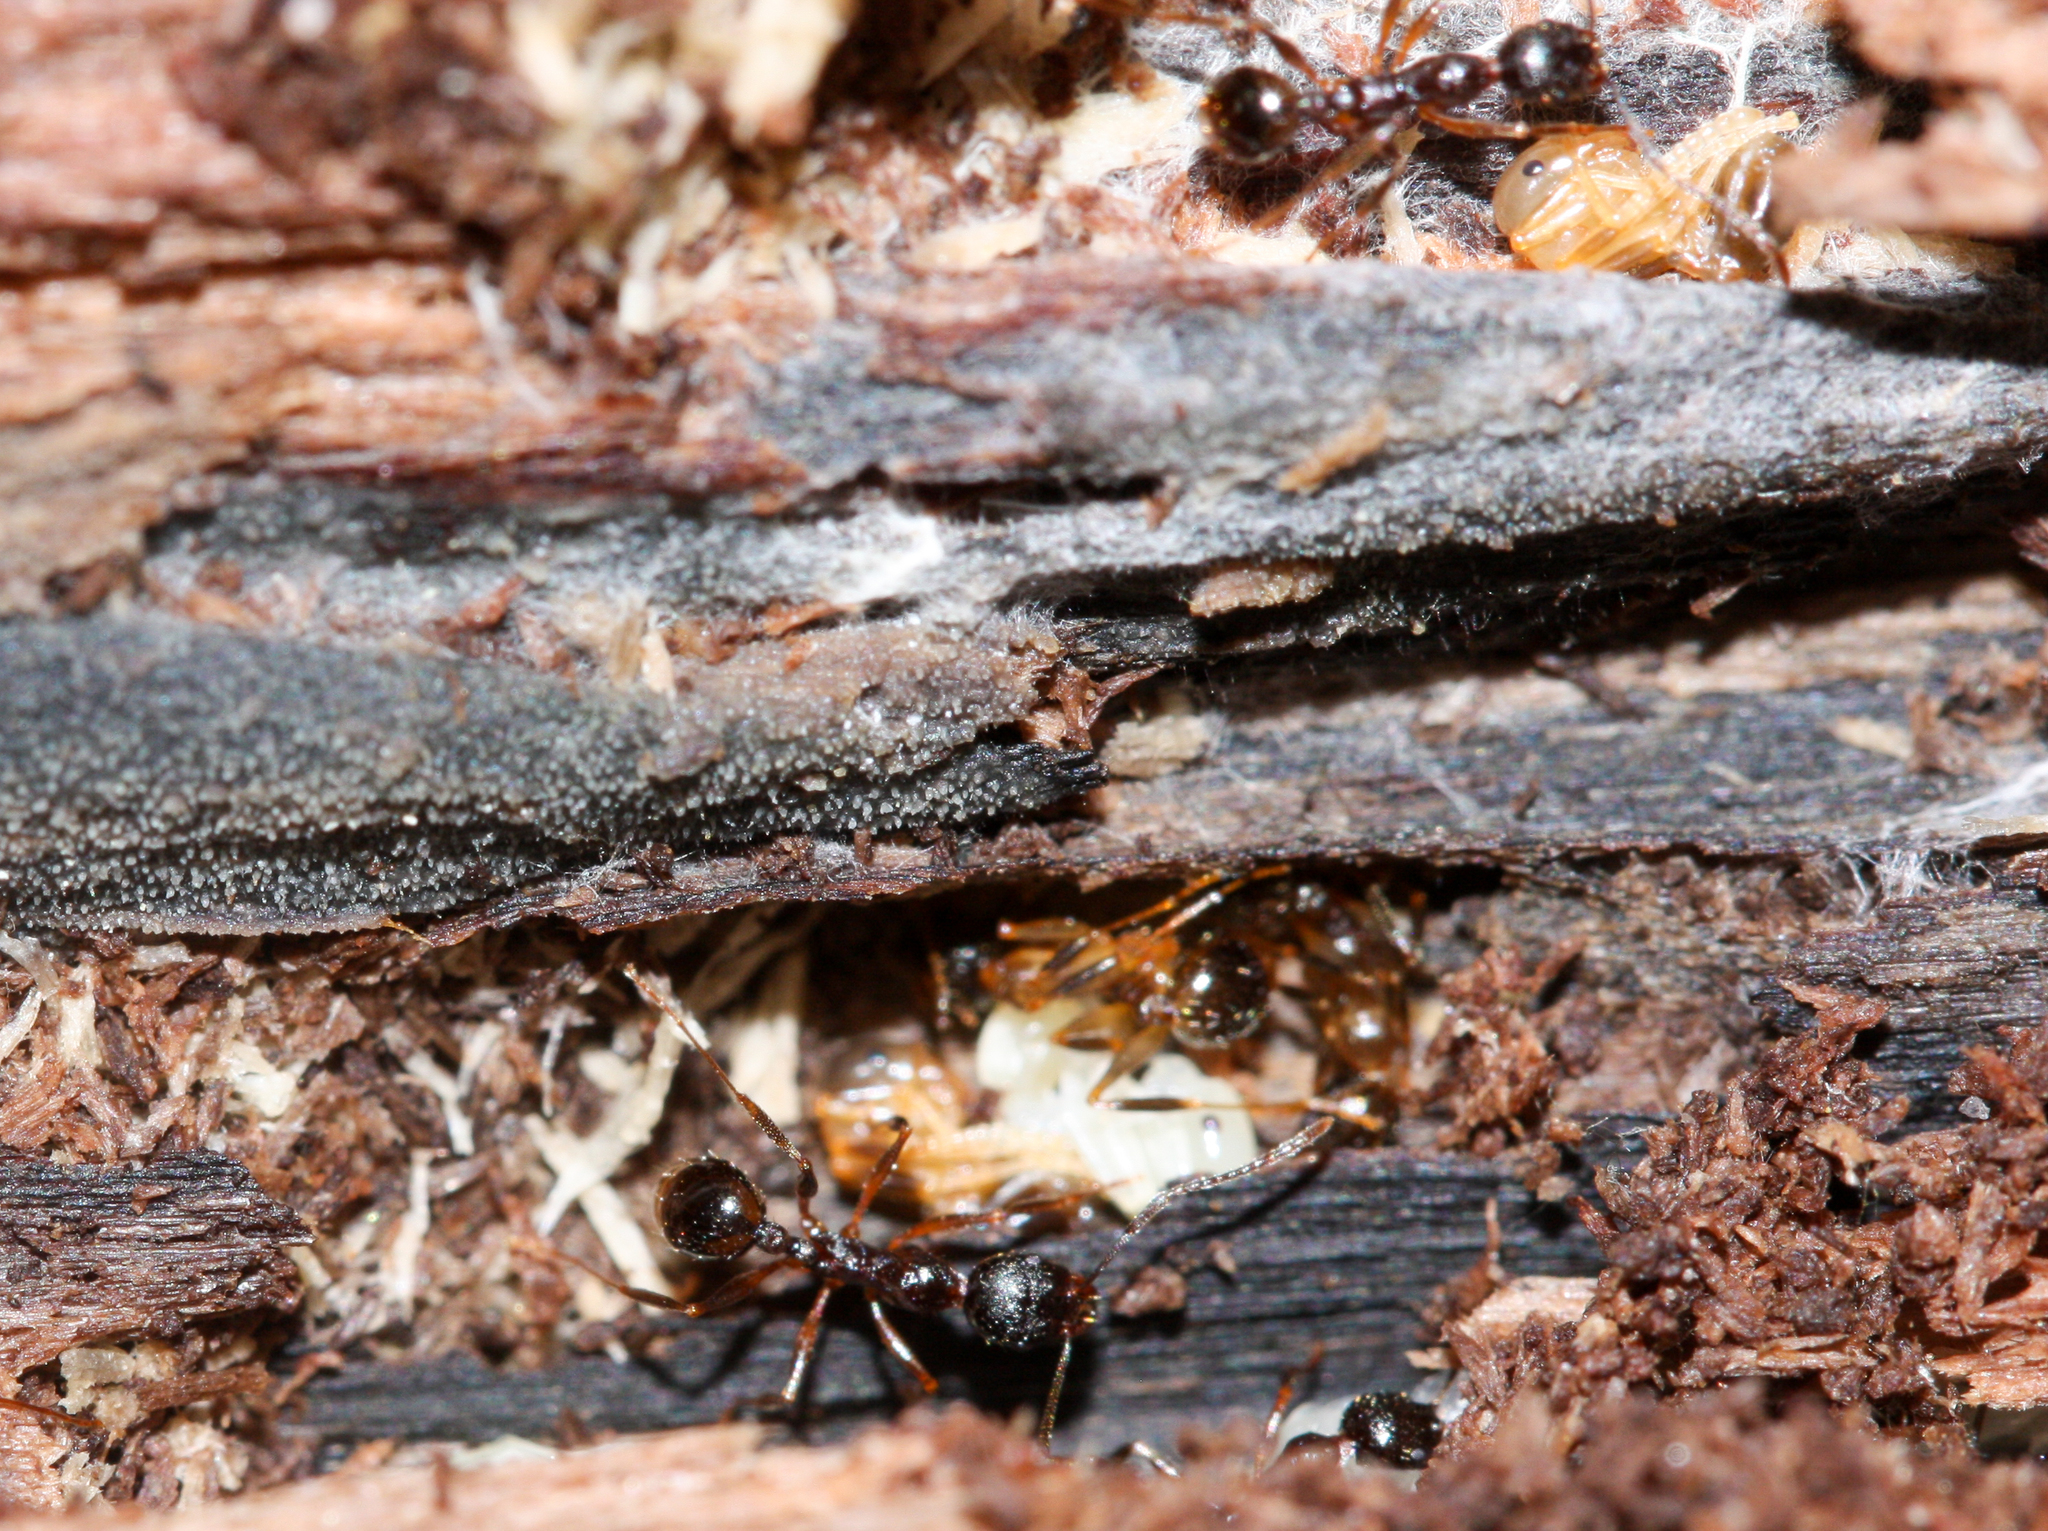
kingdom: Animalia
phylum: Arthropoda
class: Insecta
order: Hymenoptera
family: Formicidae
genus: Aphaenogaster
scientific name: Aphaenogaster picea
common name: Pitch-black collared ant
